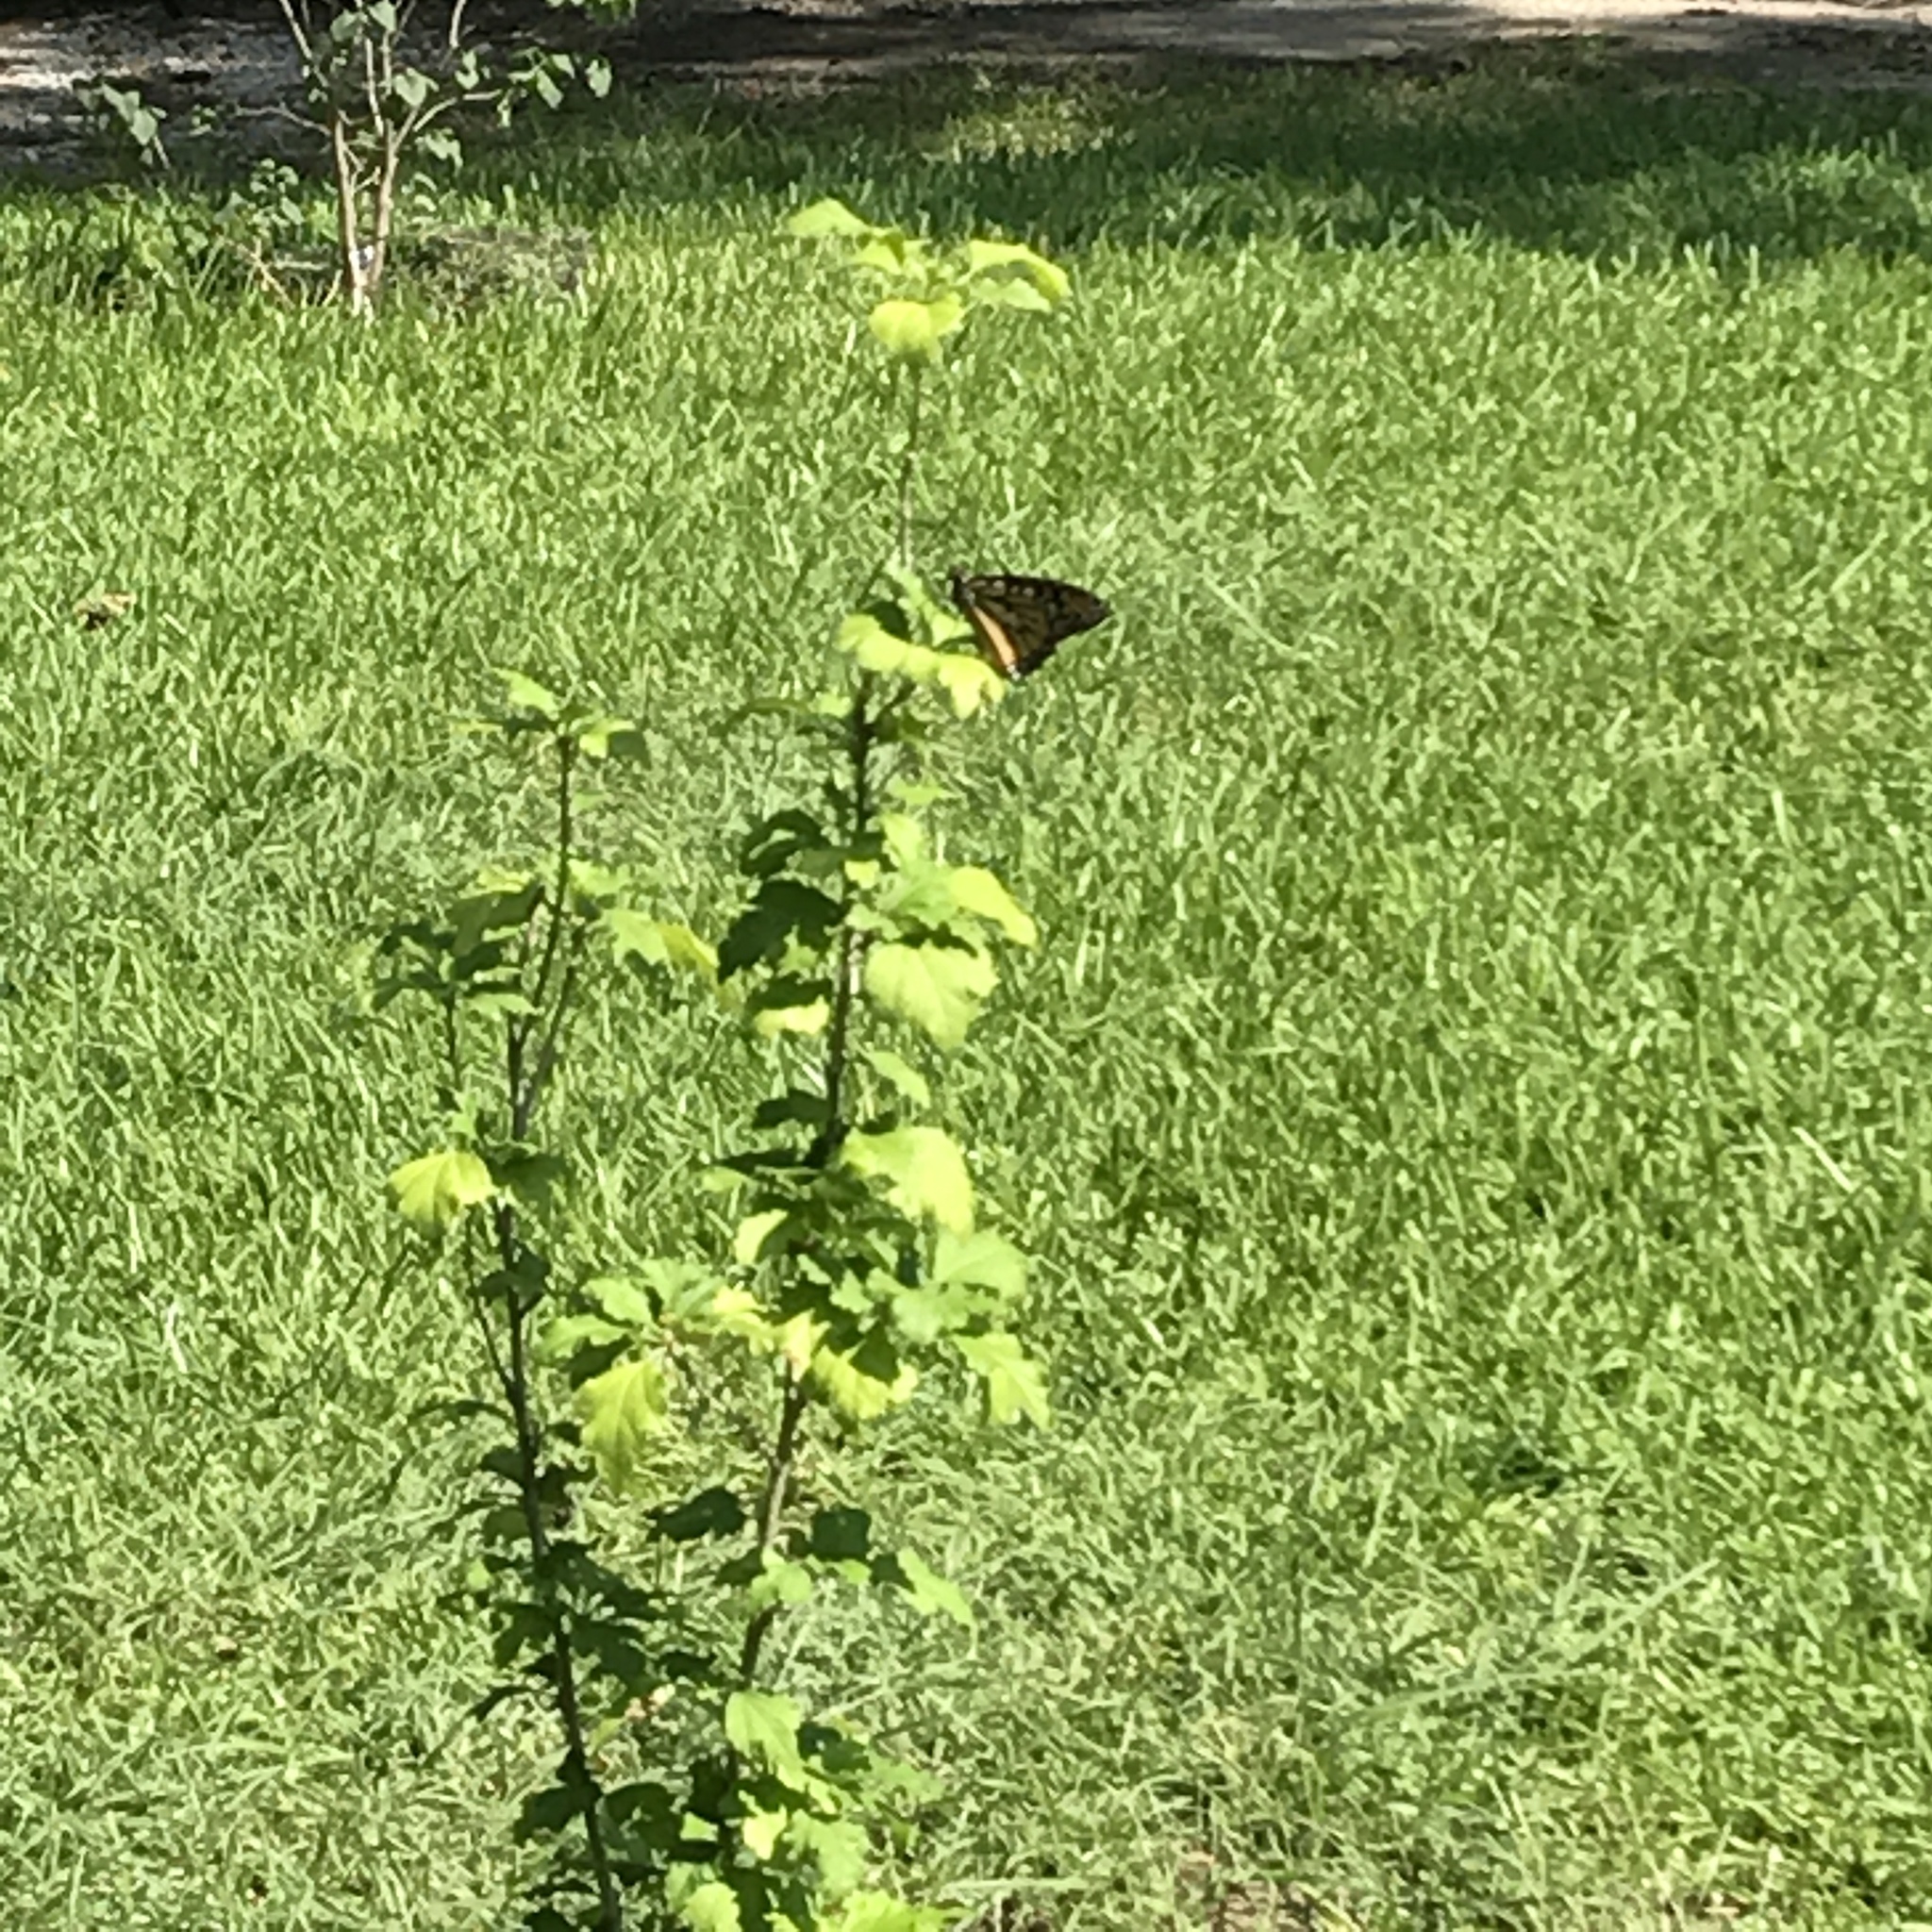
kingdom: Animalia
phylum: Arthropoda
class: Insecta
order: Lepidoptera
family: Nymphalidae
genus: Danaus
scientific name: Danaus plexippus
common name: Monarch
